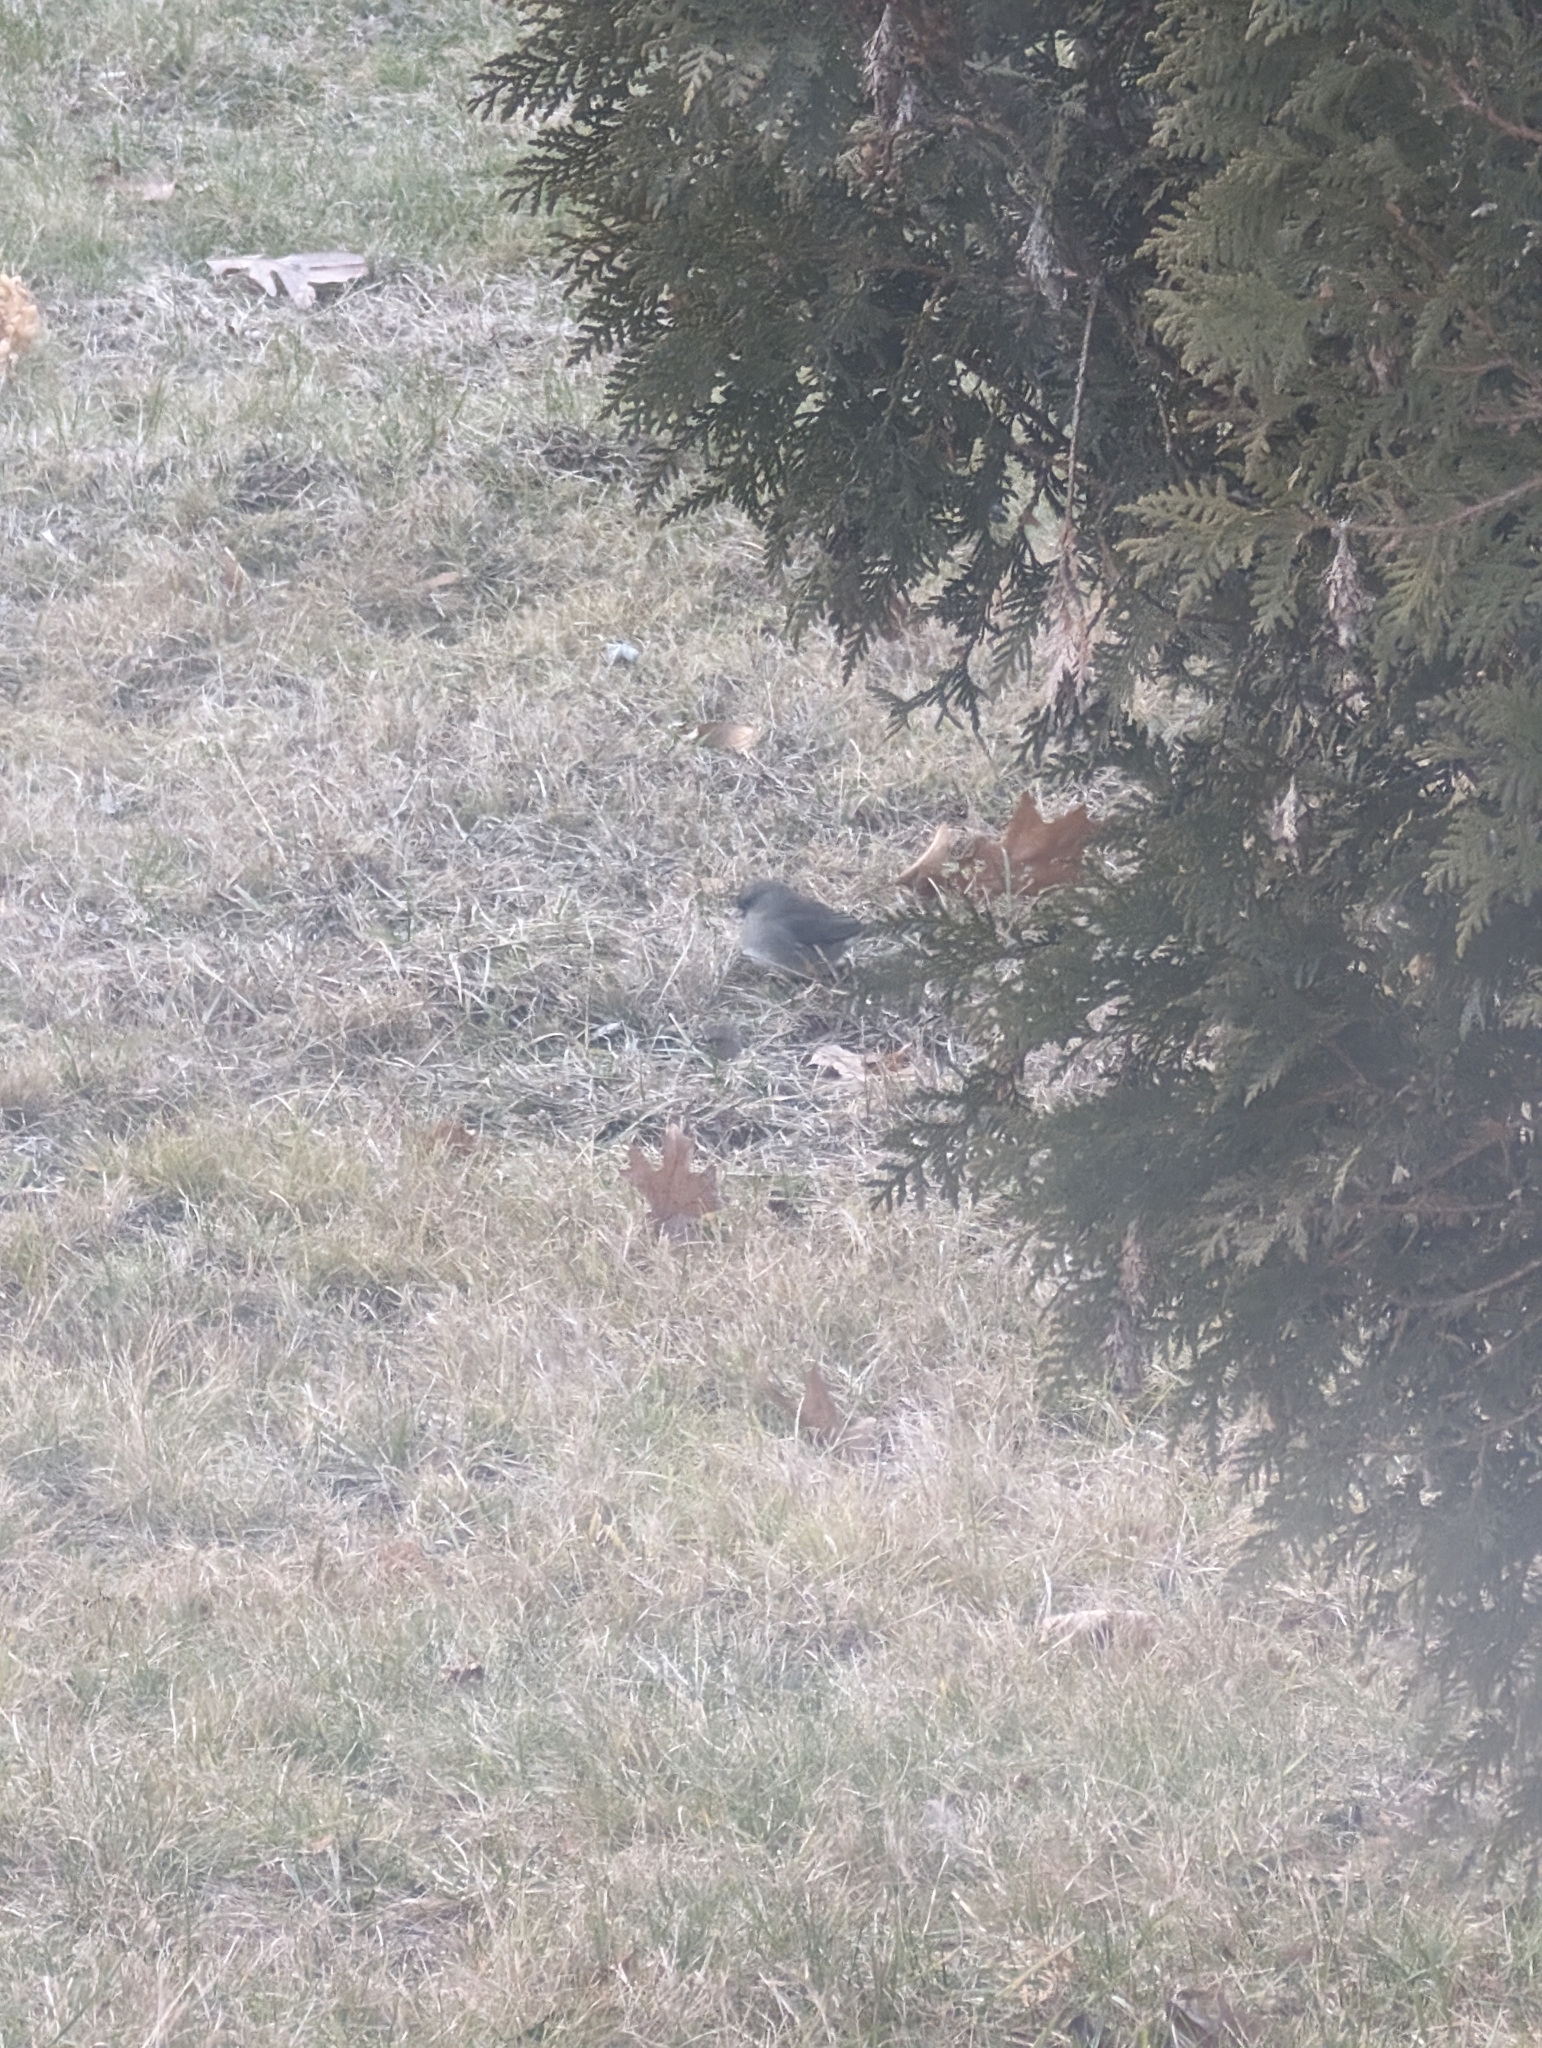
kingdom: Animalia
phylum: Chordata
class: Aves
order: Passeriformes
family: Passerellidae
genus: Junco
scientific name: Junco hyemalis
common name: Dark-eyed junco
